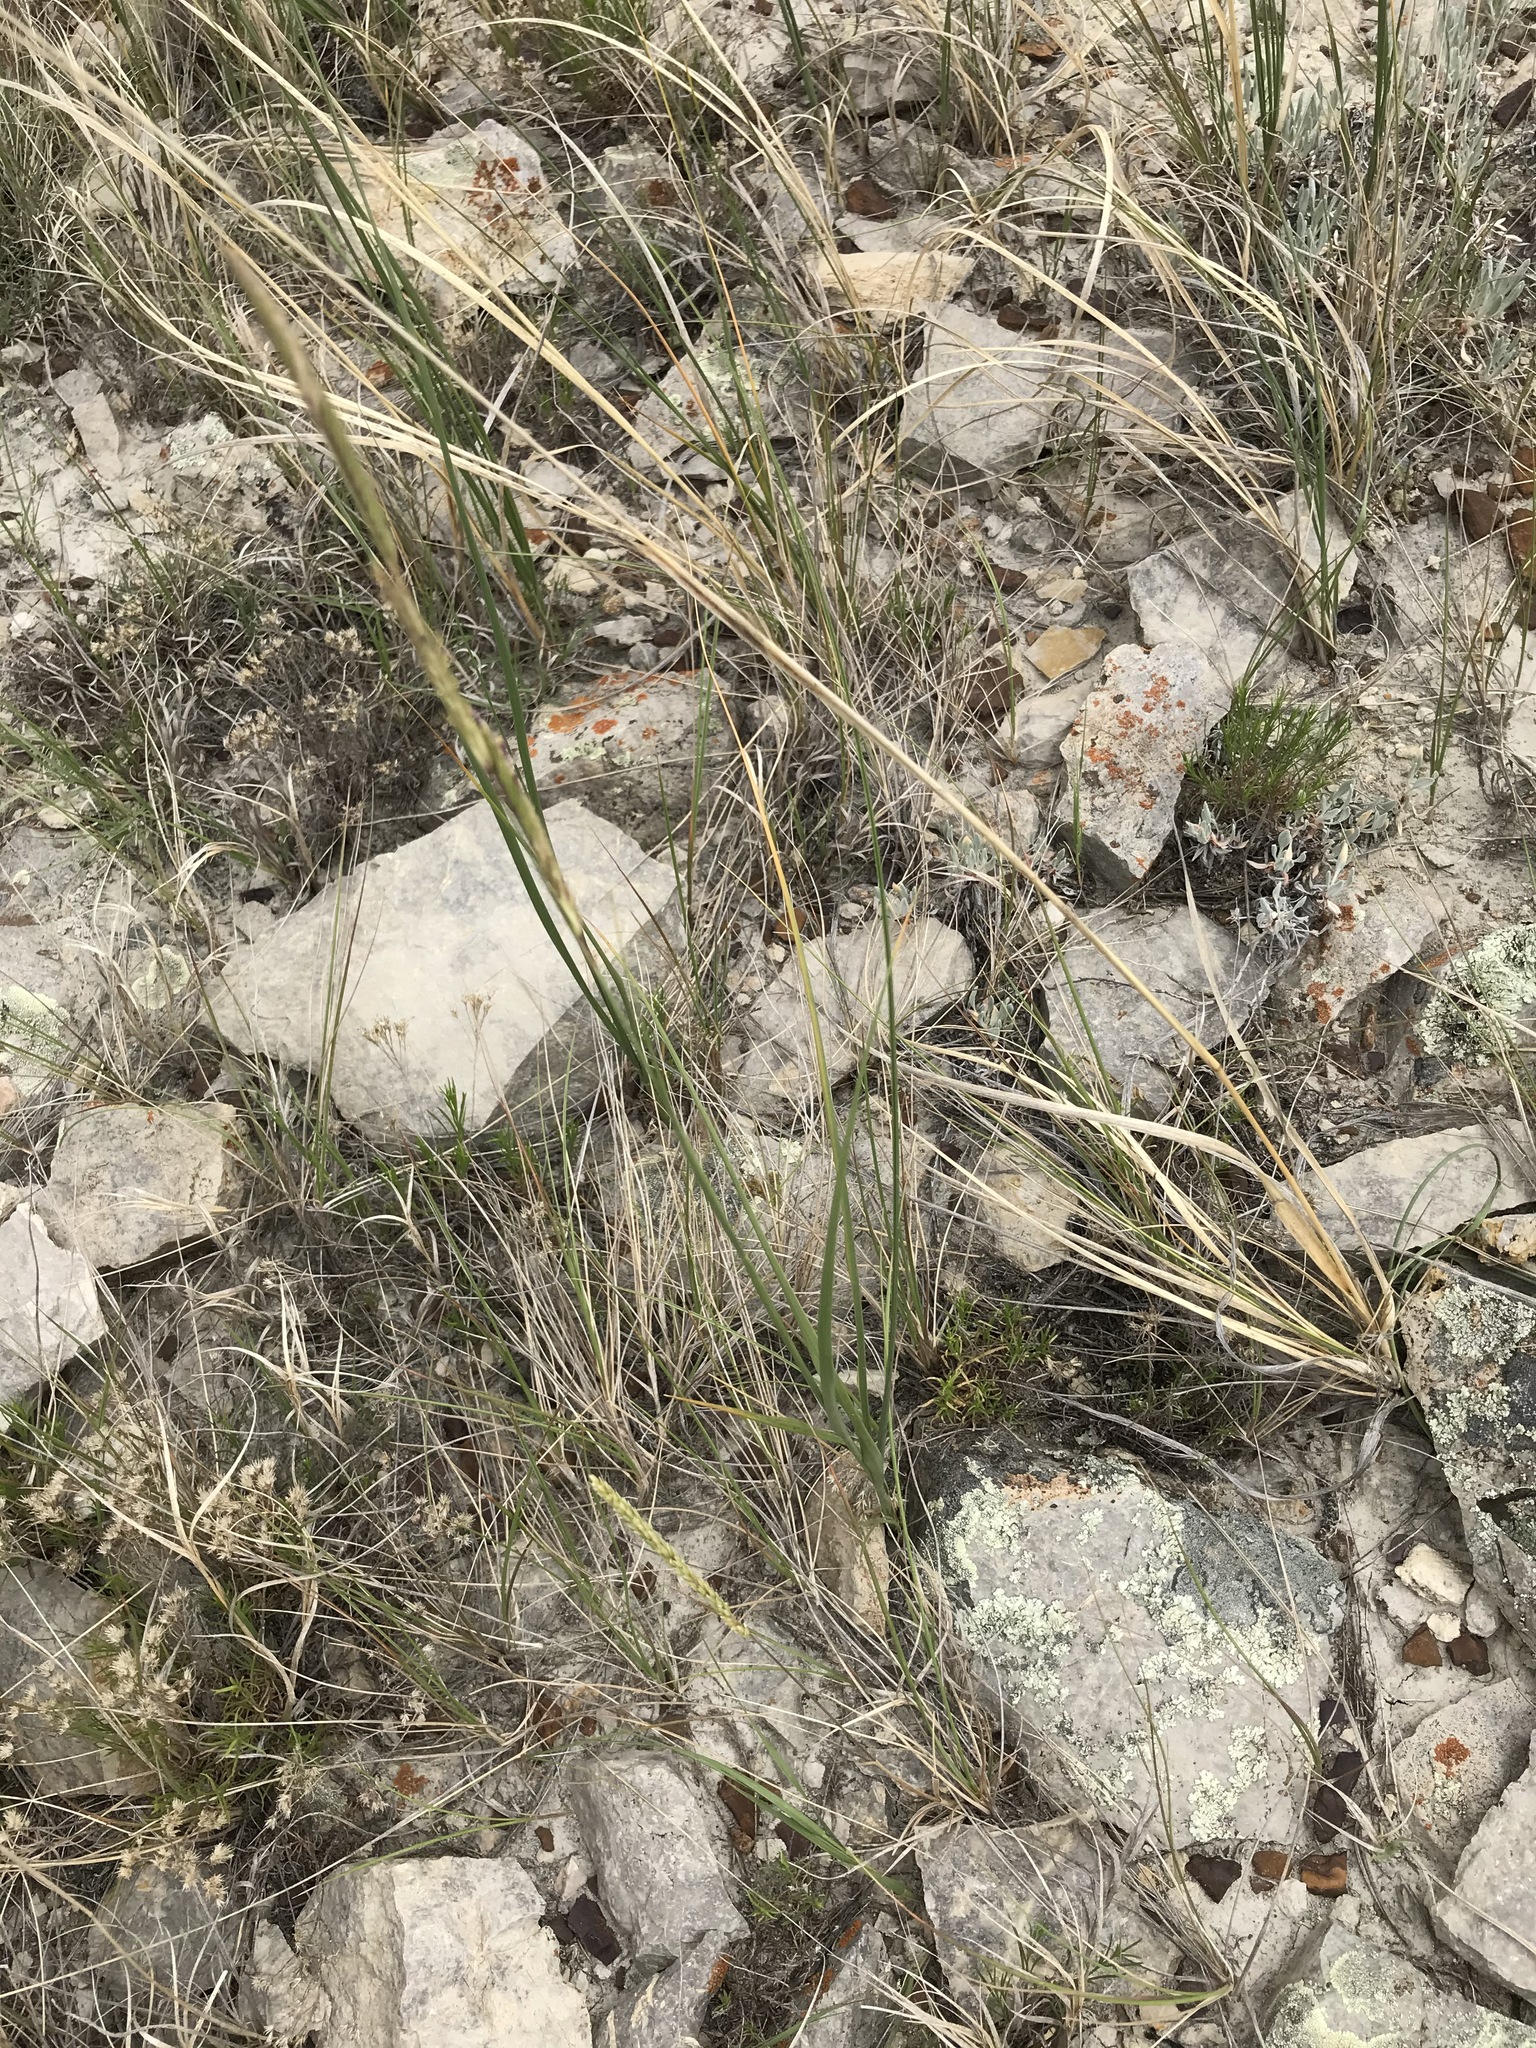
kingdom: Plantae
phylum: Tracheophyta
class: Liliopsida
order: Poales
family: Poaceae
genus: Sporobolus
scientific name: Sporobolus hookerianus
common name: Alkali cordgrass
